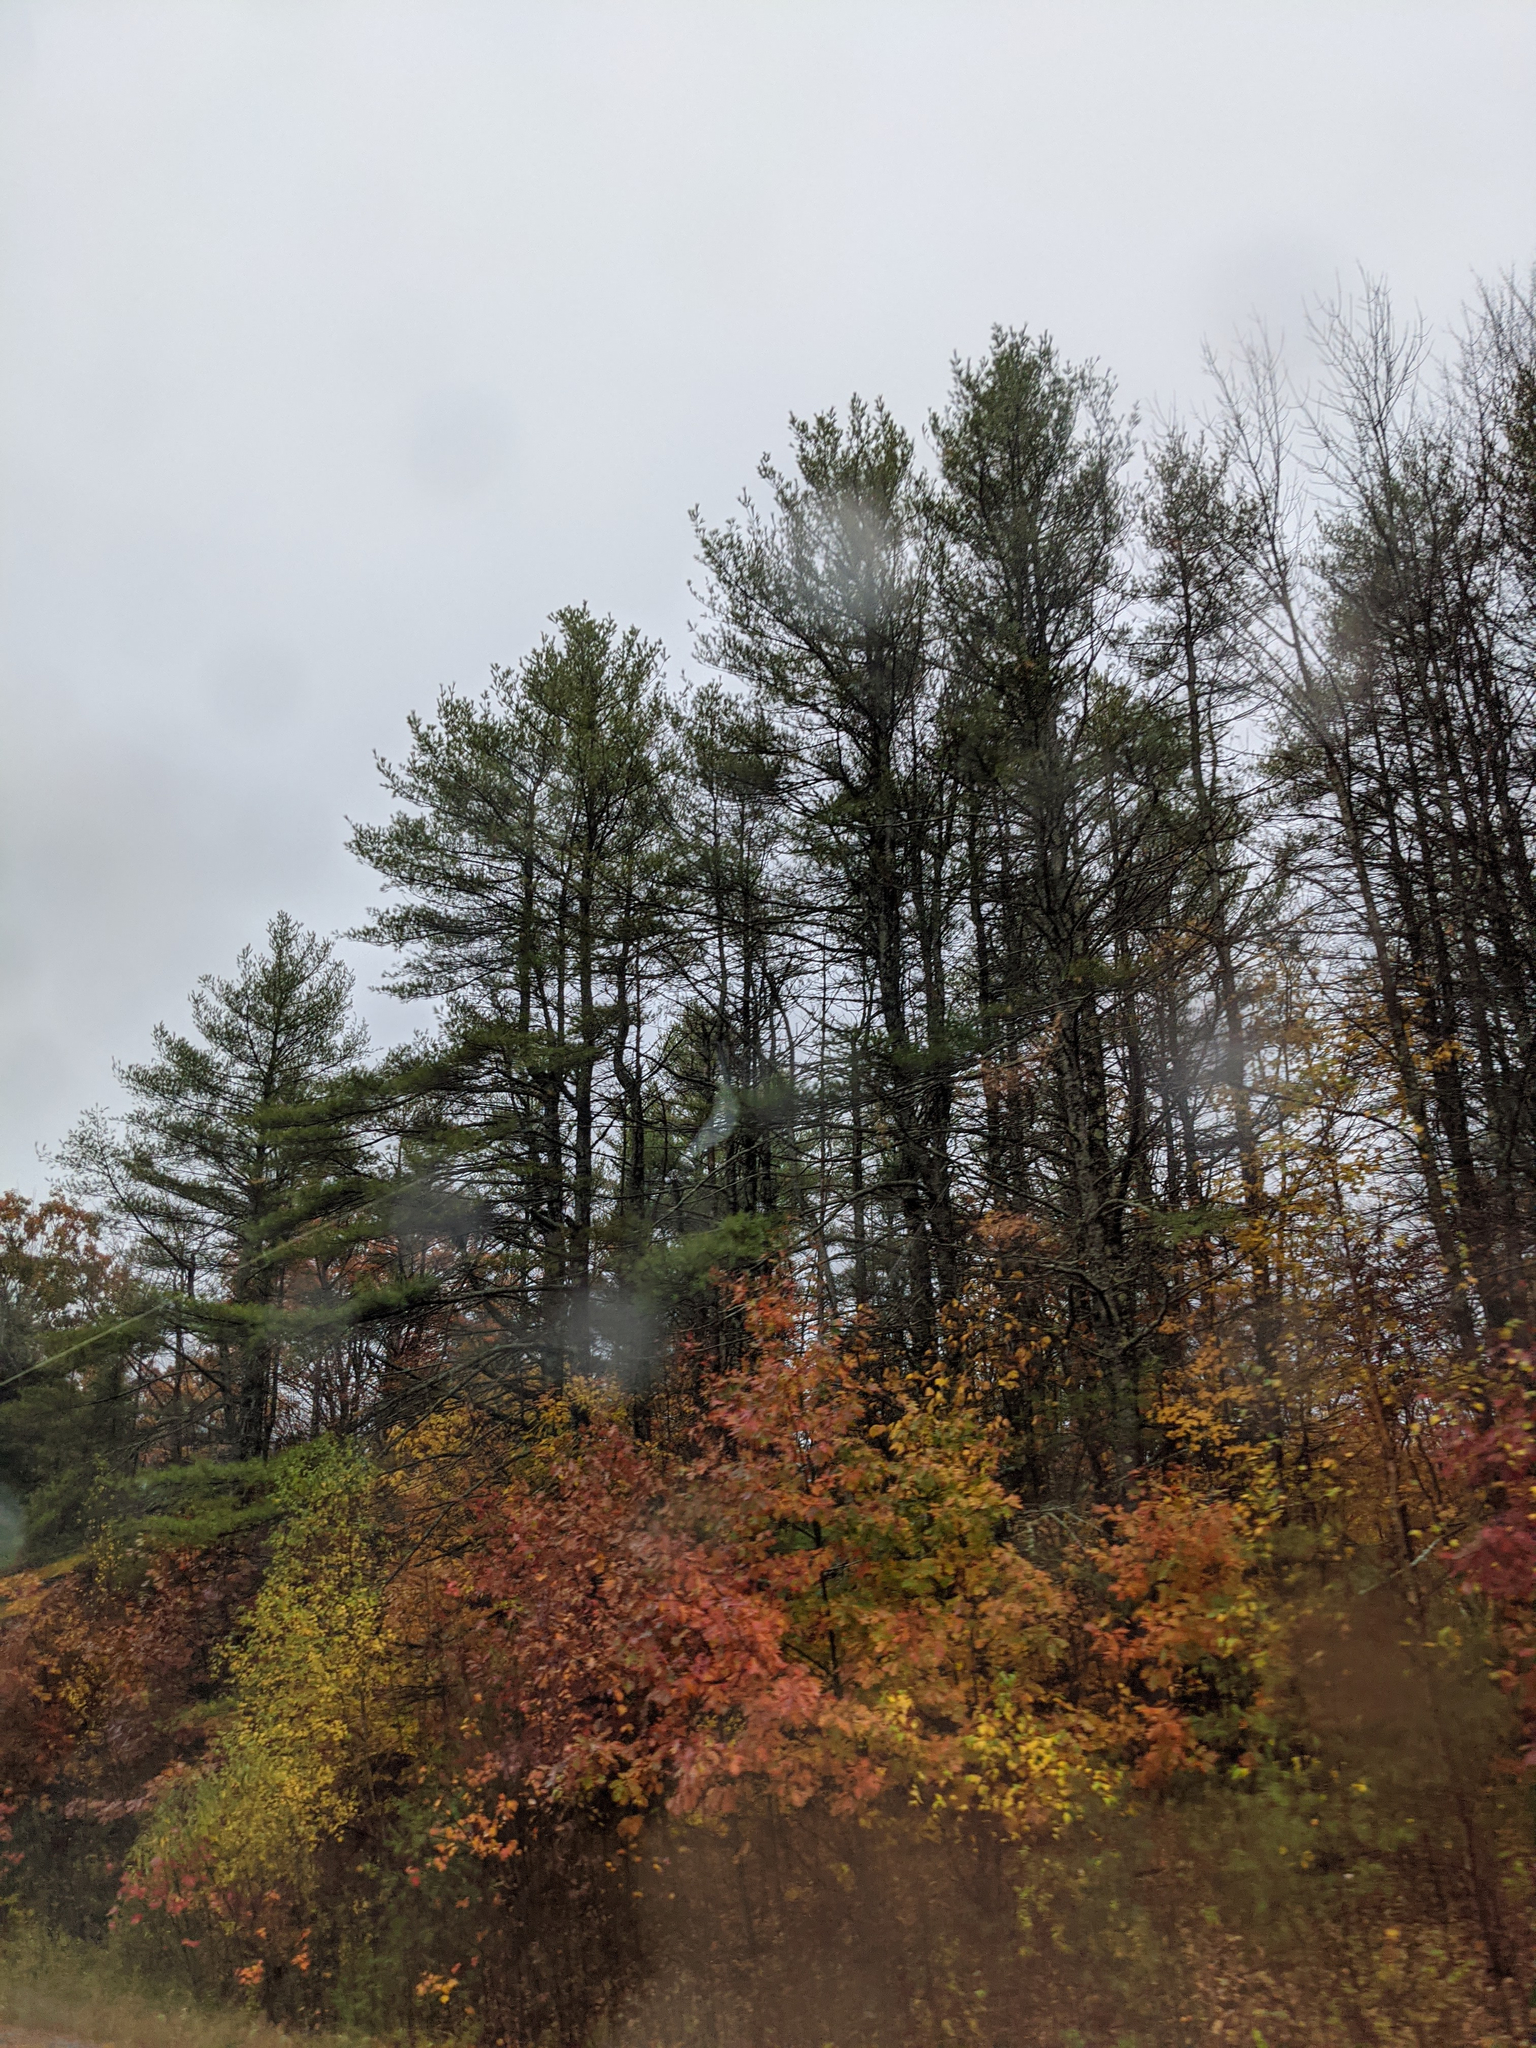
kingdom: Plantae
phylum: Tracheophyta
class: Pinopsida
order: Pinales
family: Pinaceae
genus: Pinus
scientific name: Pinus strobus
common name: Weymouth pine
